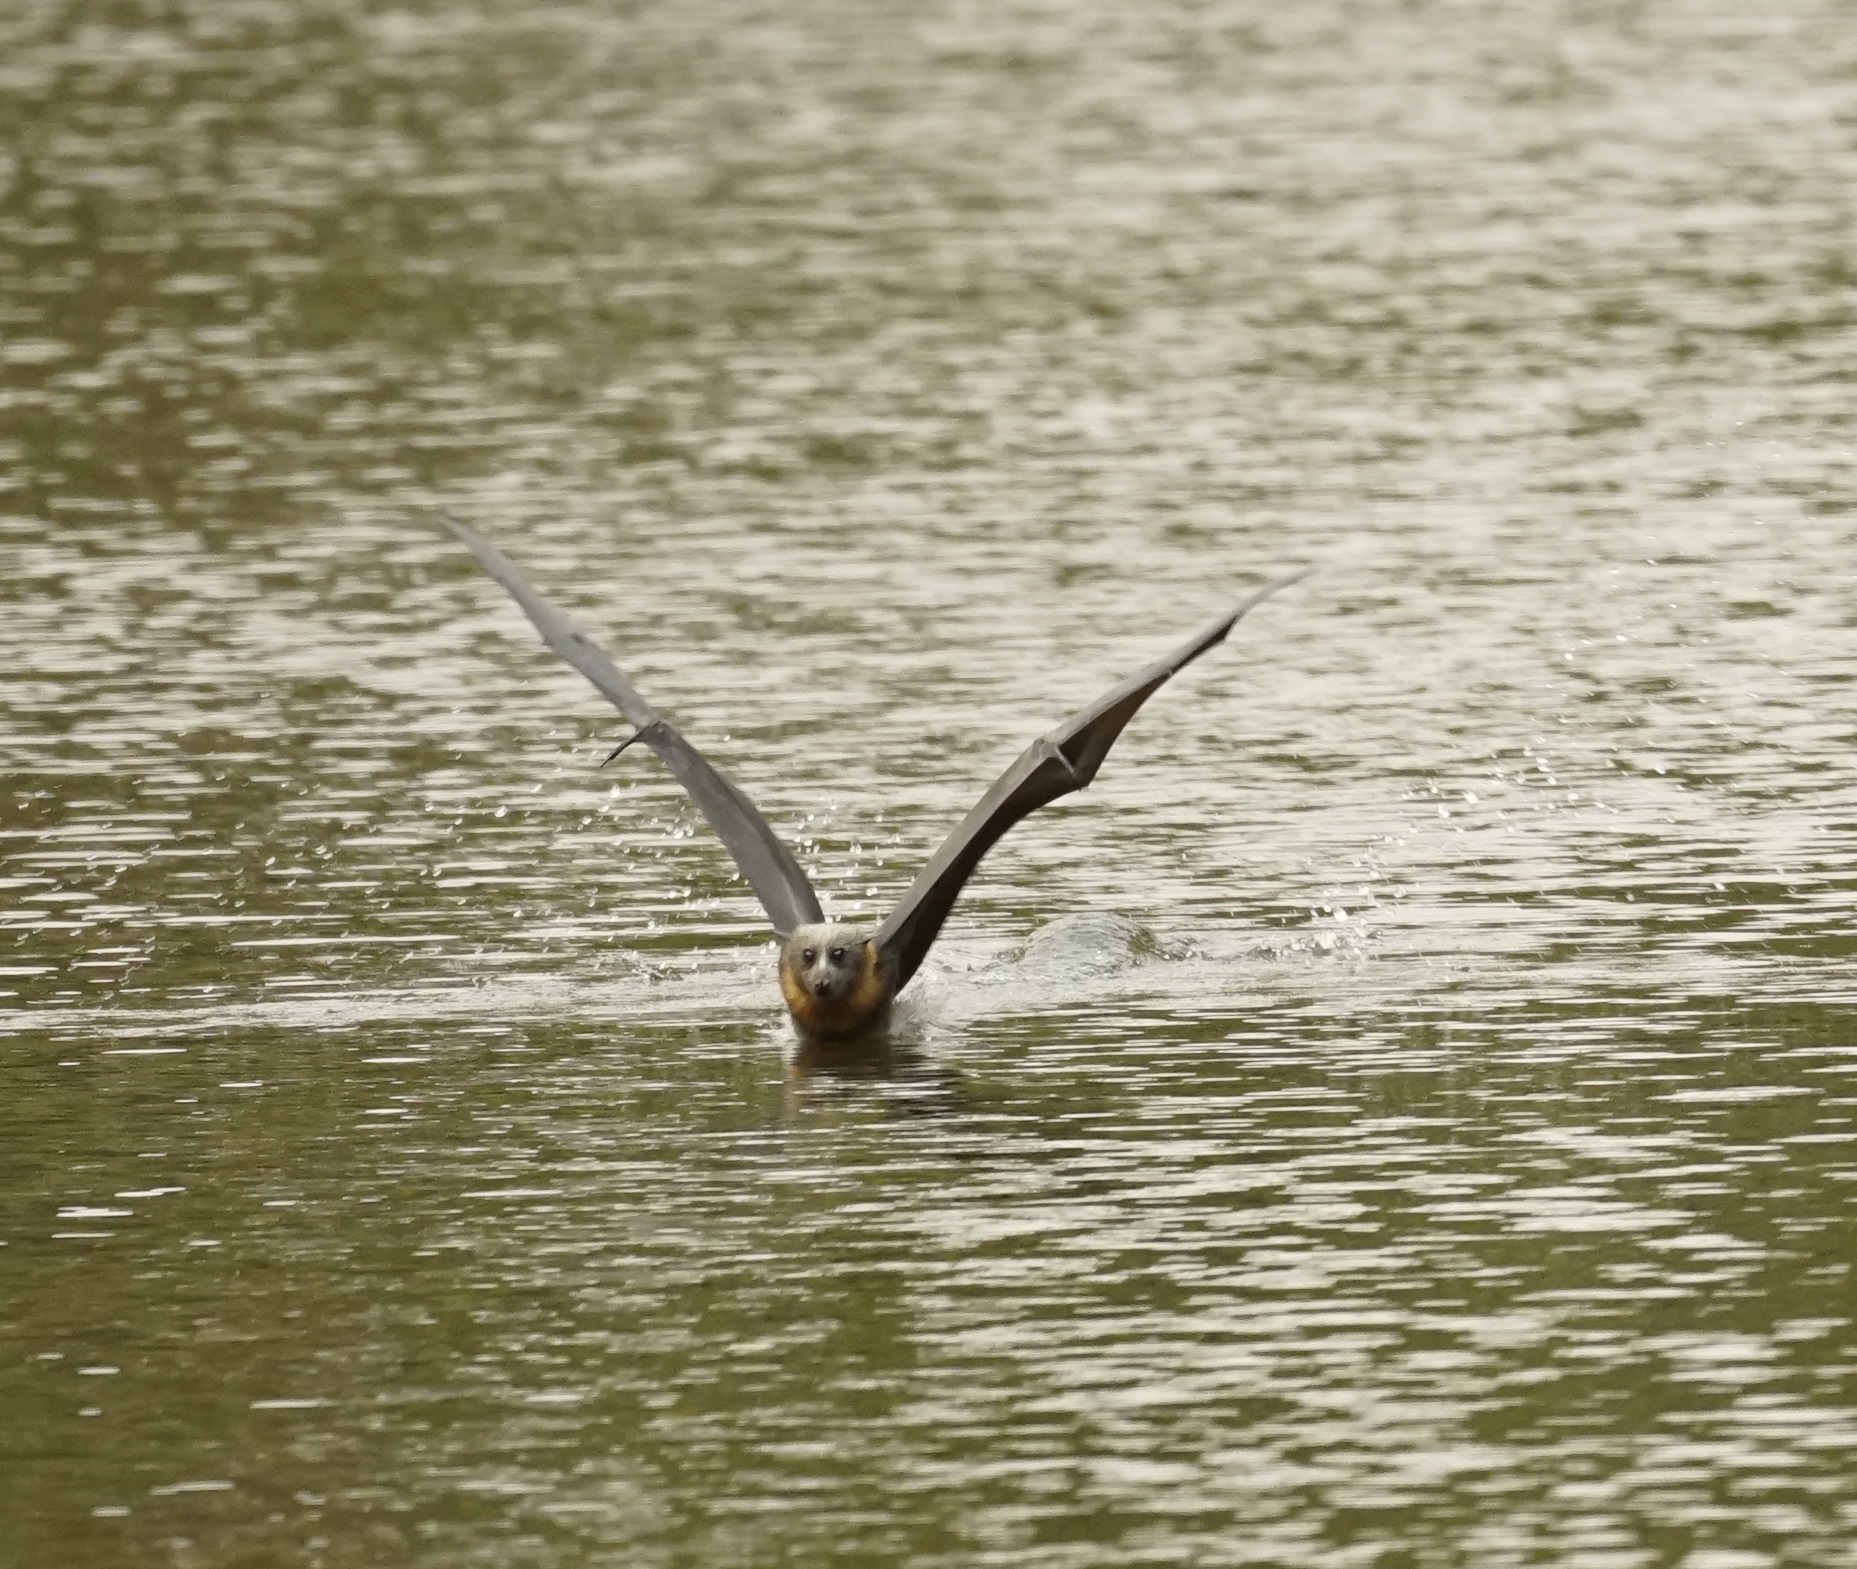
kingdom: Animalia
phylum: Chordata
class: Mammalia
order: Chiroptera
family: Pteropodidae
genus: Pteropus
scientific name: Pteropus poliocephalus
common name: Gray-headed flying fox
